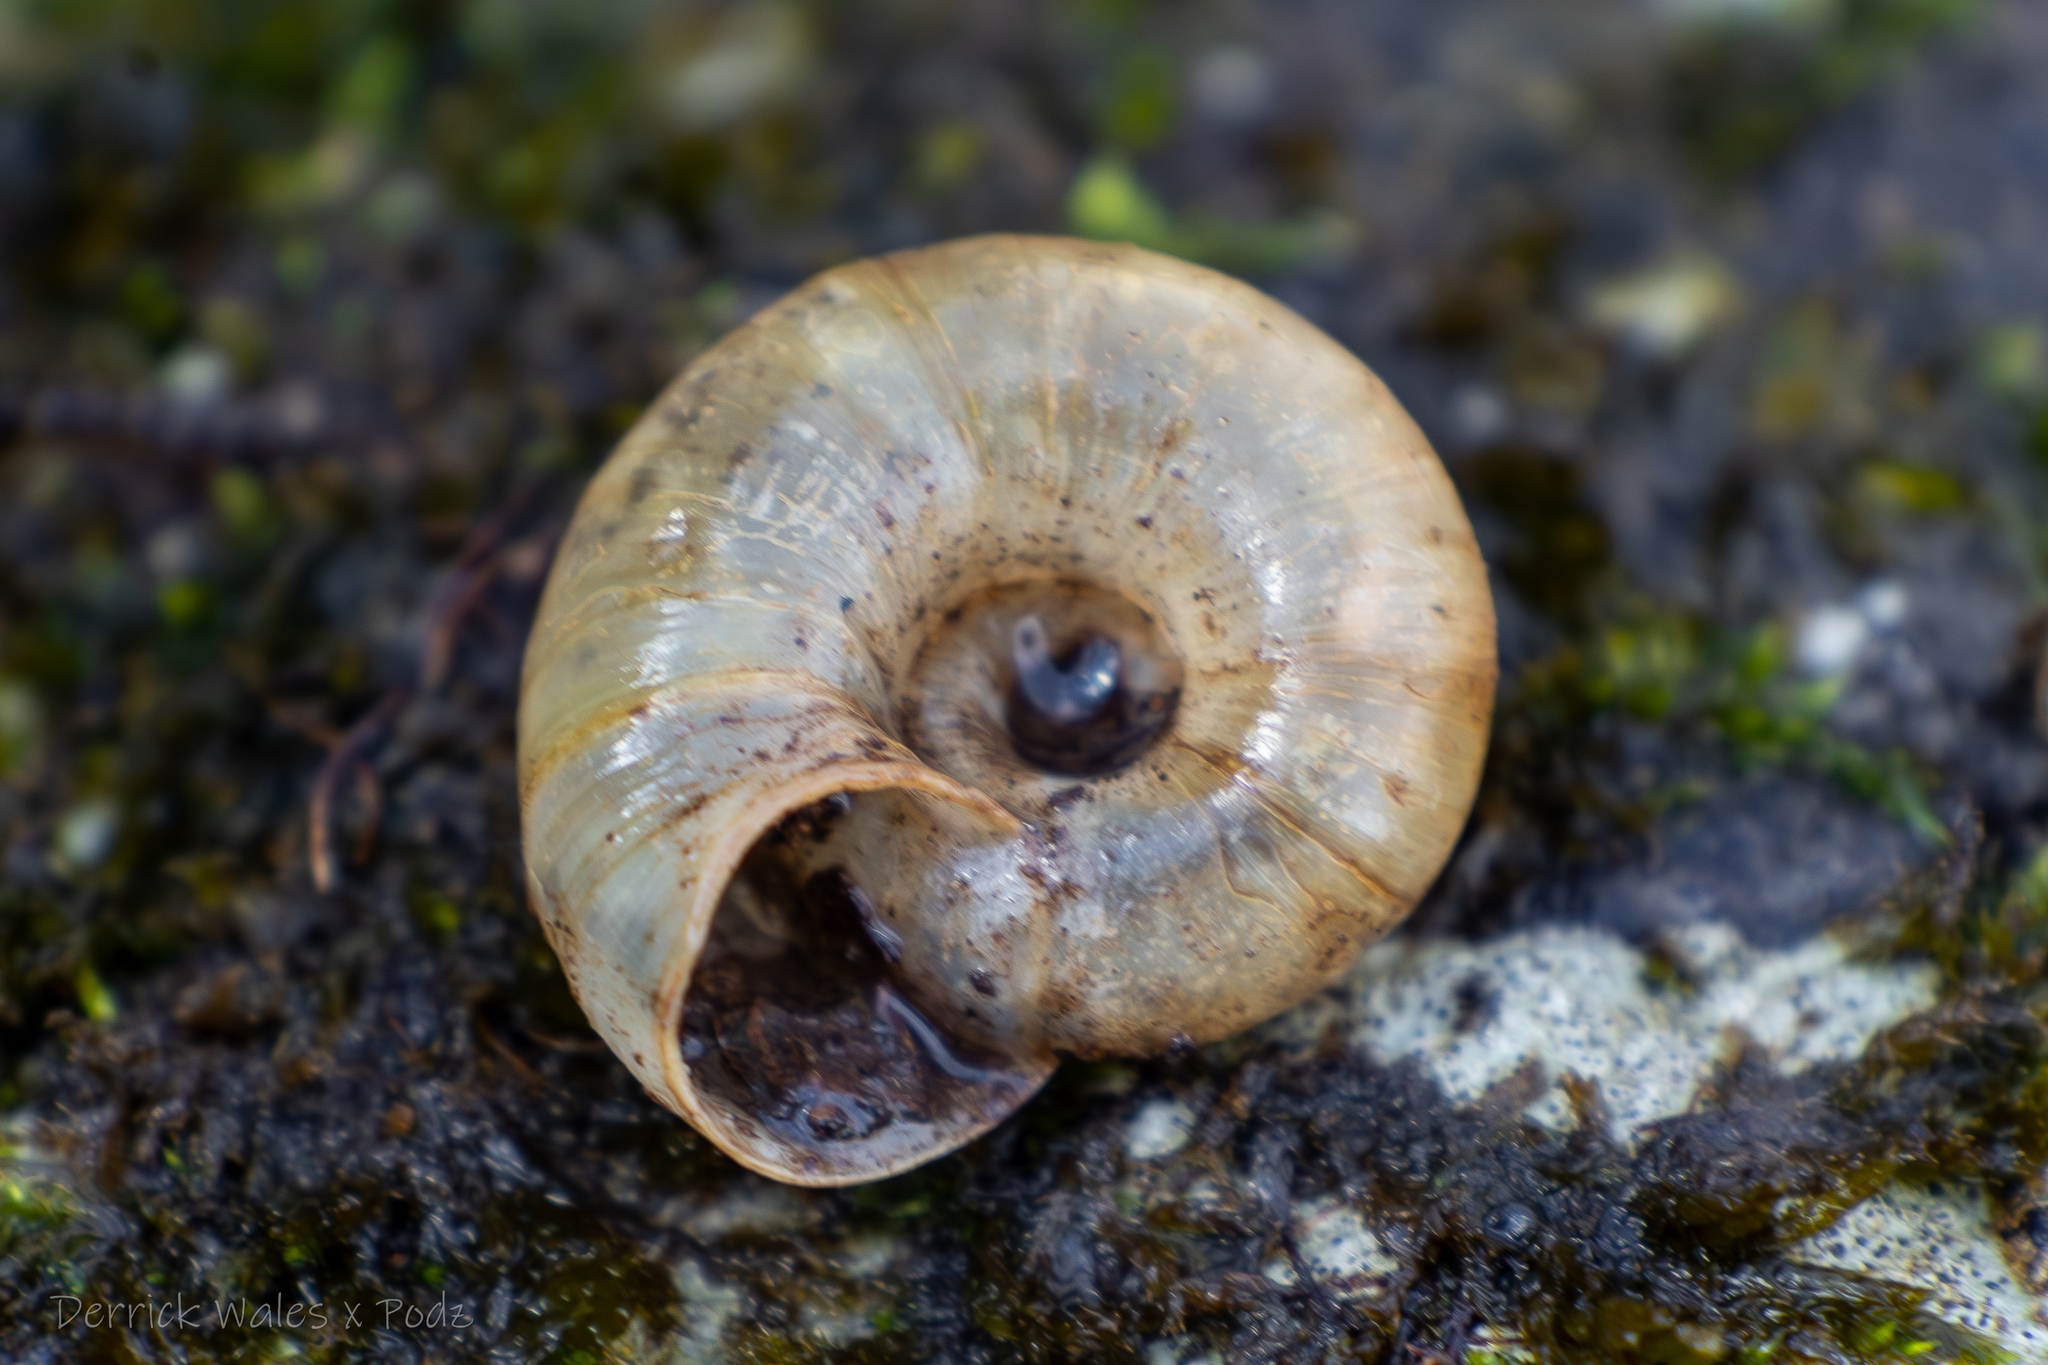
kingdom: Animalia
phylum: Mollusca
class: Gastropoda
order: Stylommatophora
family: Haplotrematidae
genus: Haplotrema
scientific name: Haplotrema concavum
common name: Gray-foot lancetooth
